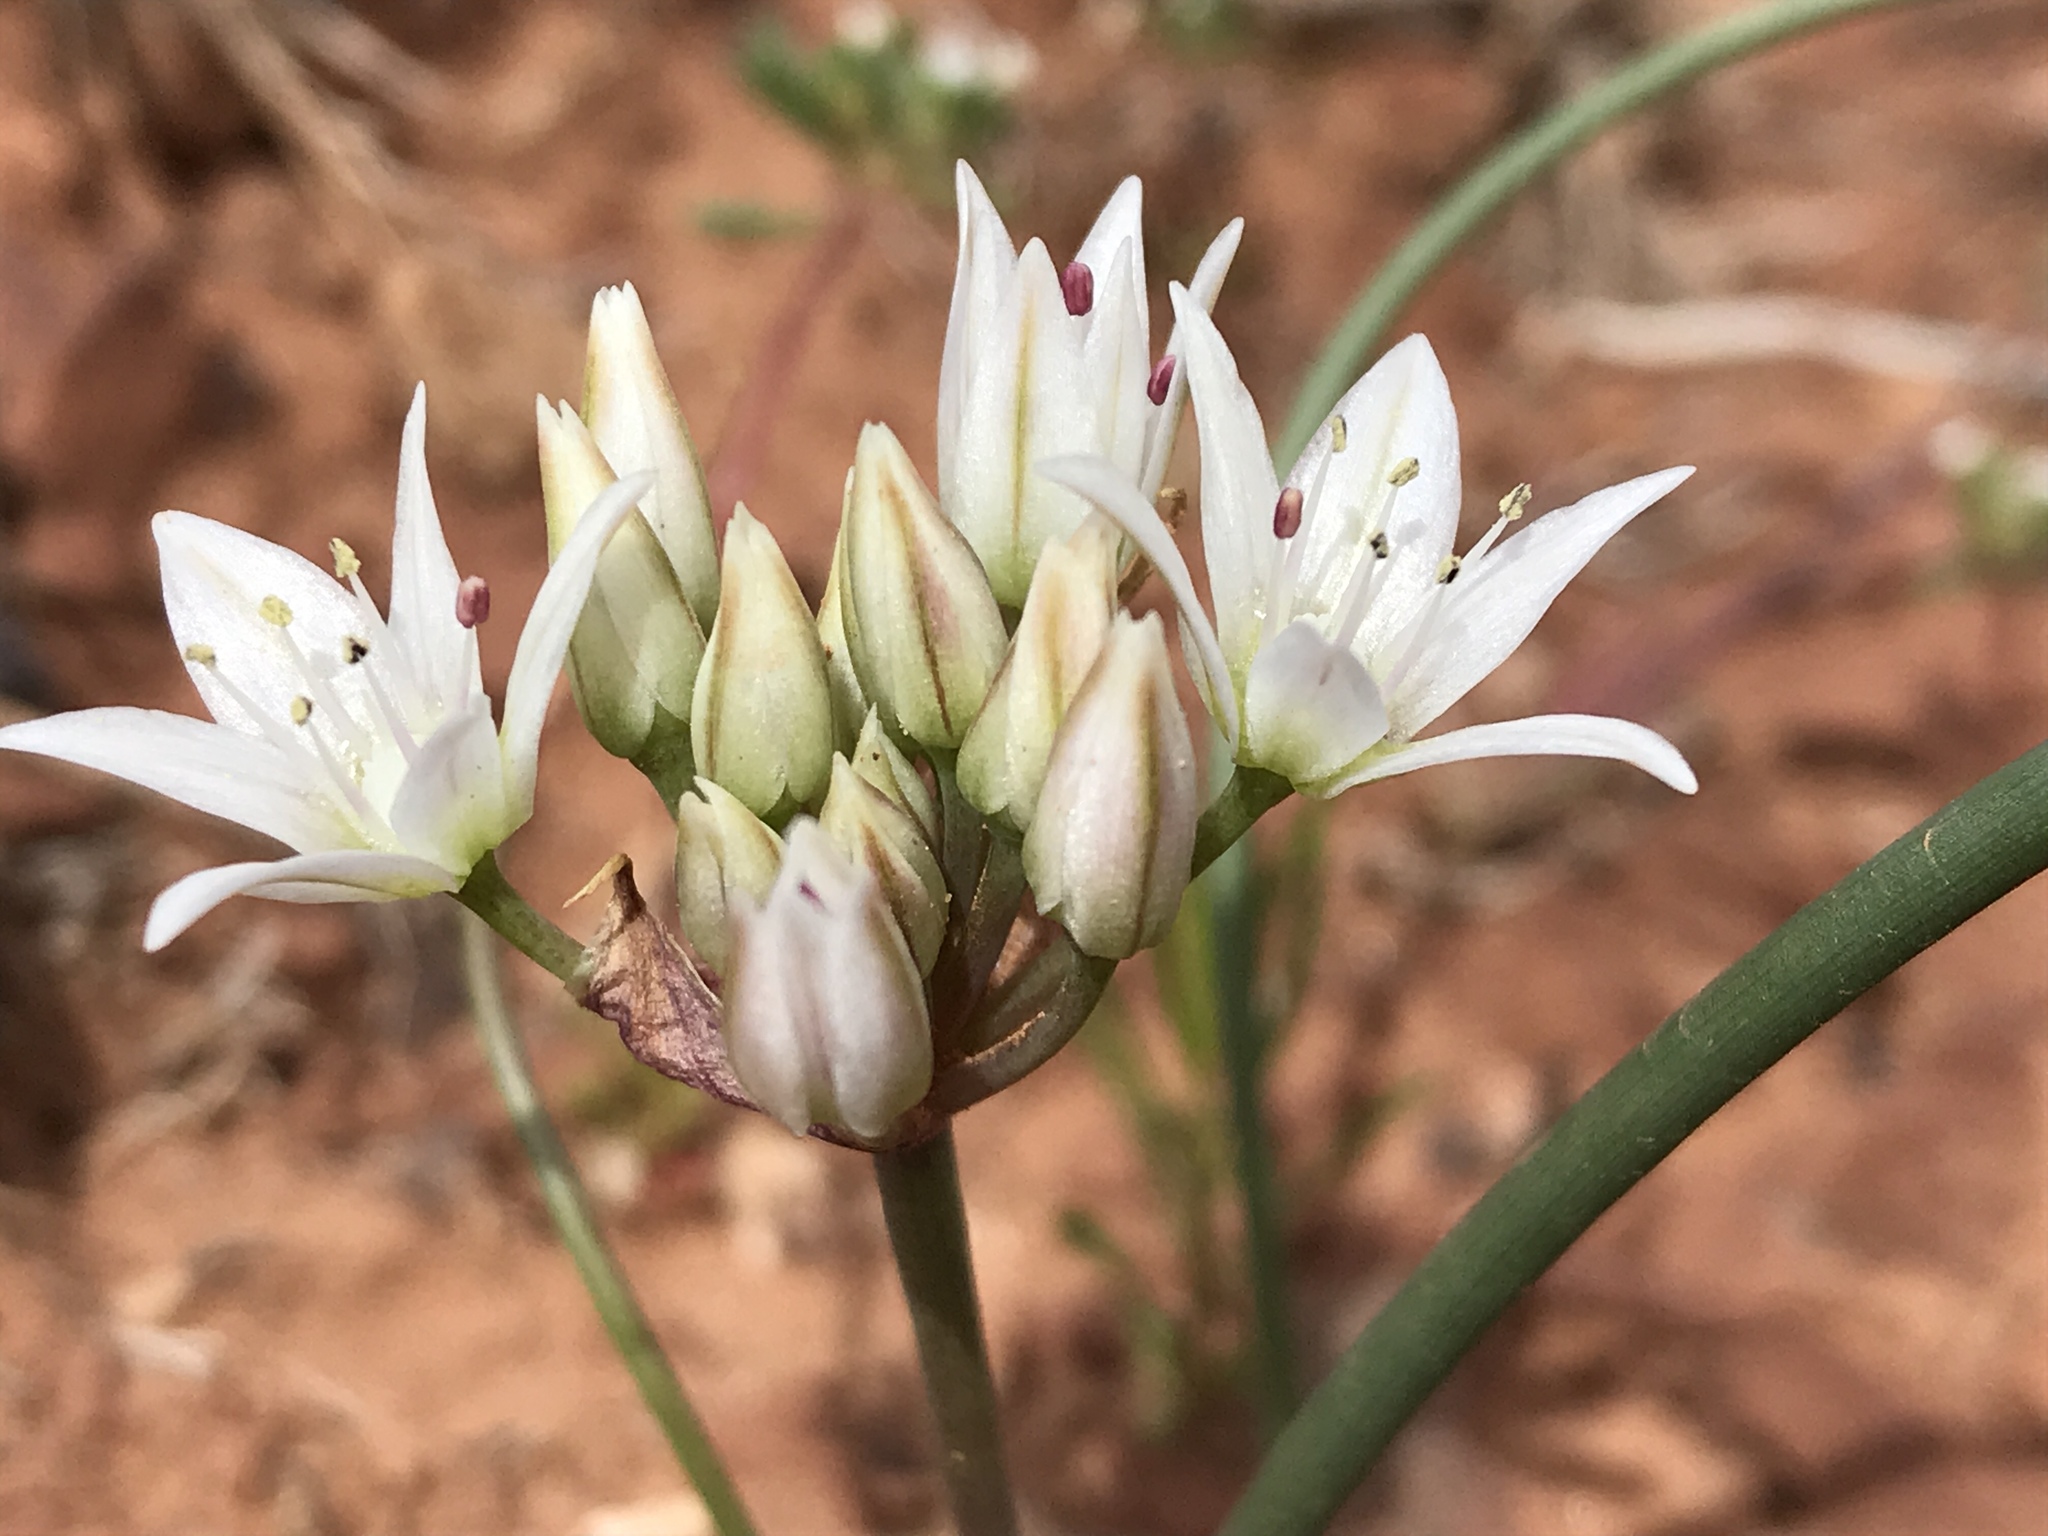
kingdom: Plantae
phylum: Tracheophyta
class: Liliopsida
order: Asparagales
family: Amaryllidaceae
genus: Allium
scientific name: Allium nevadense
